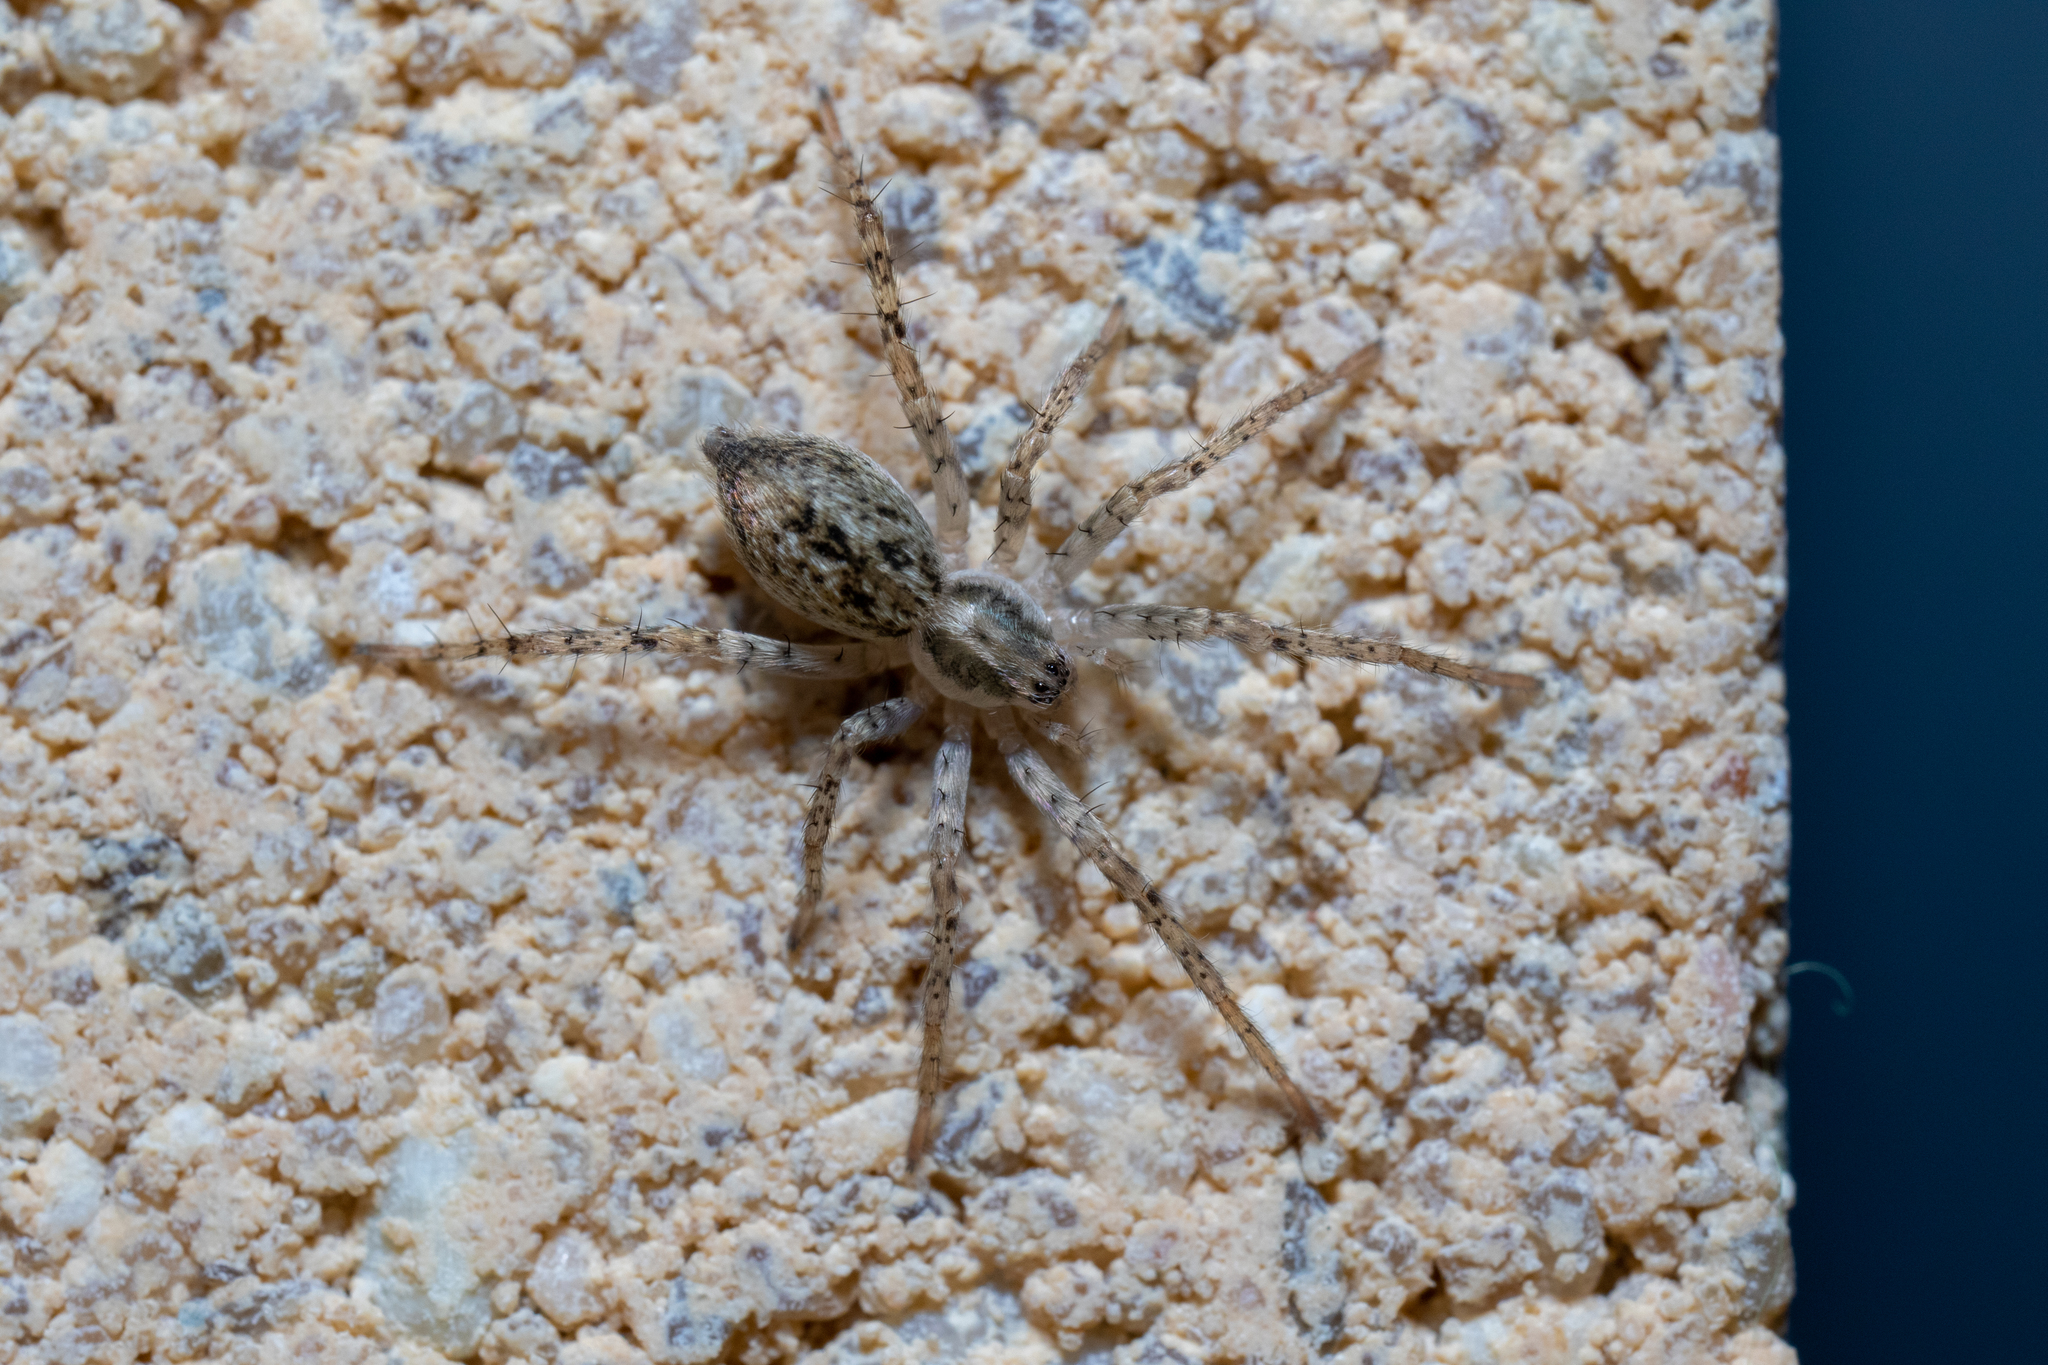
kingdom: Animalia
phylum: Arthropoda
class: Arachnida
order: Araneae
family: Anyphaenidae
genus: Anyphaena
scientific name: Anyphaena accentuata
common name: Buzzing spider
